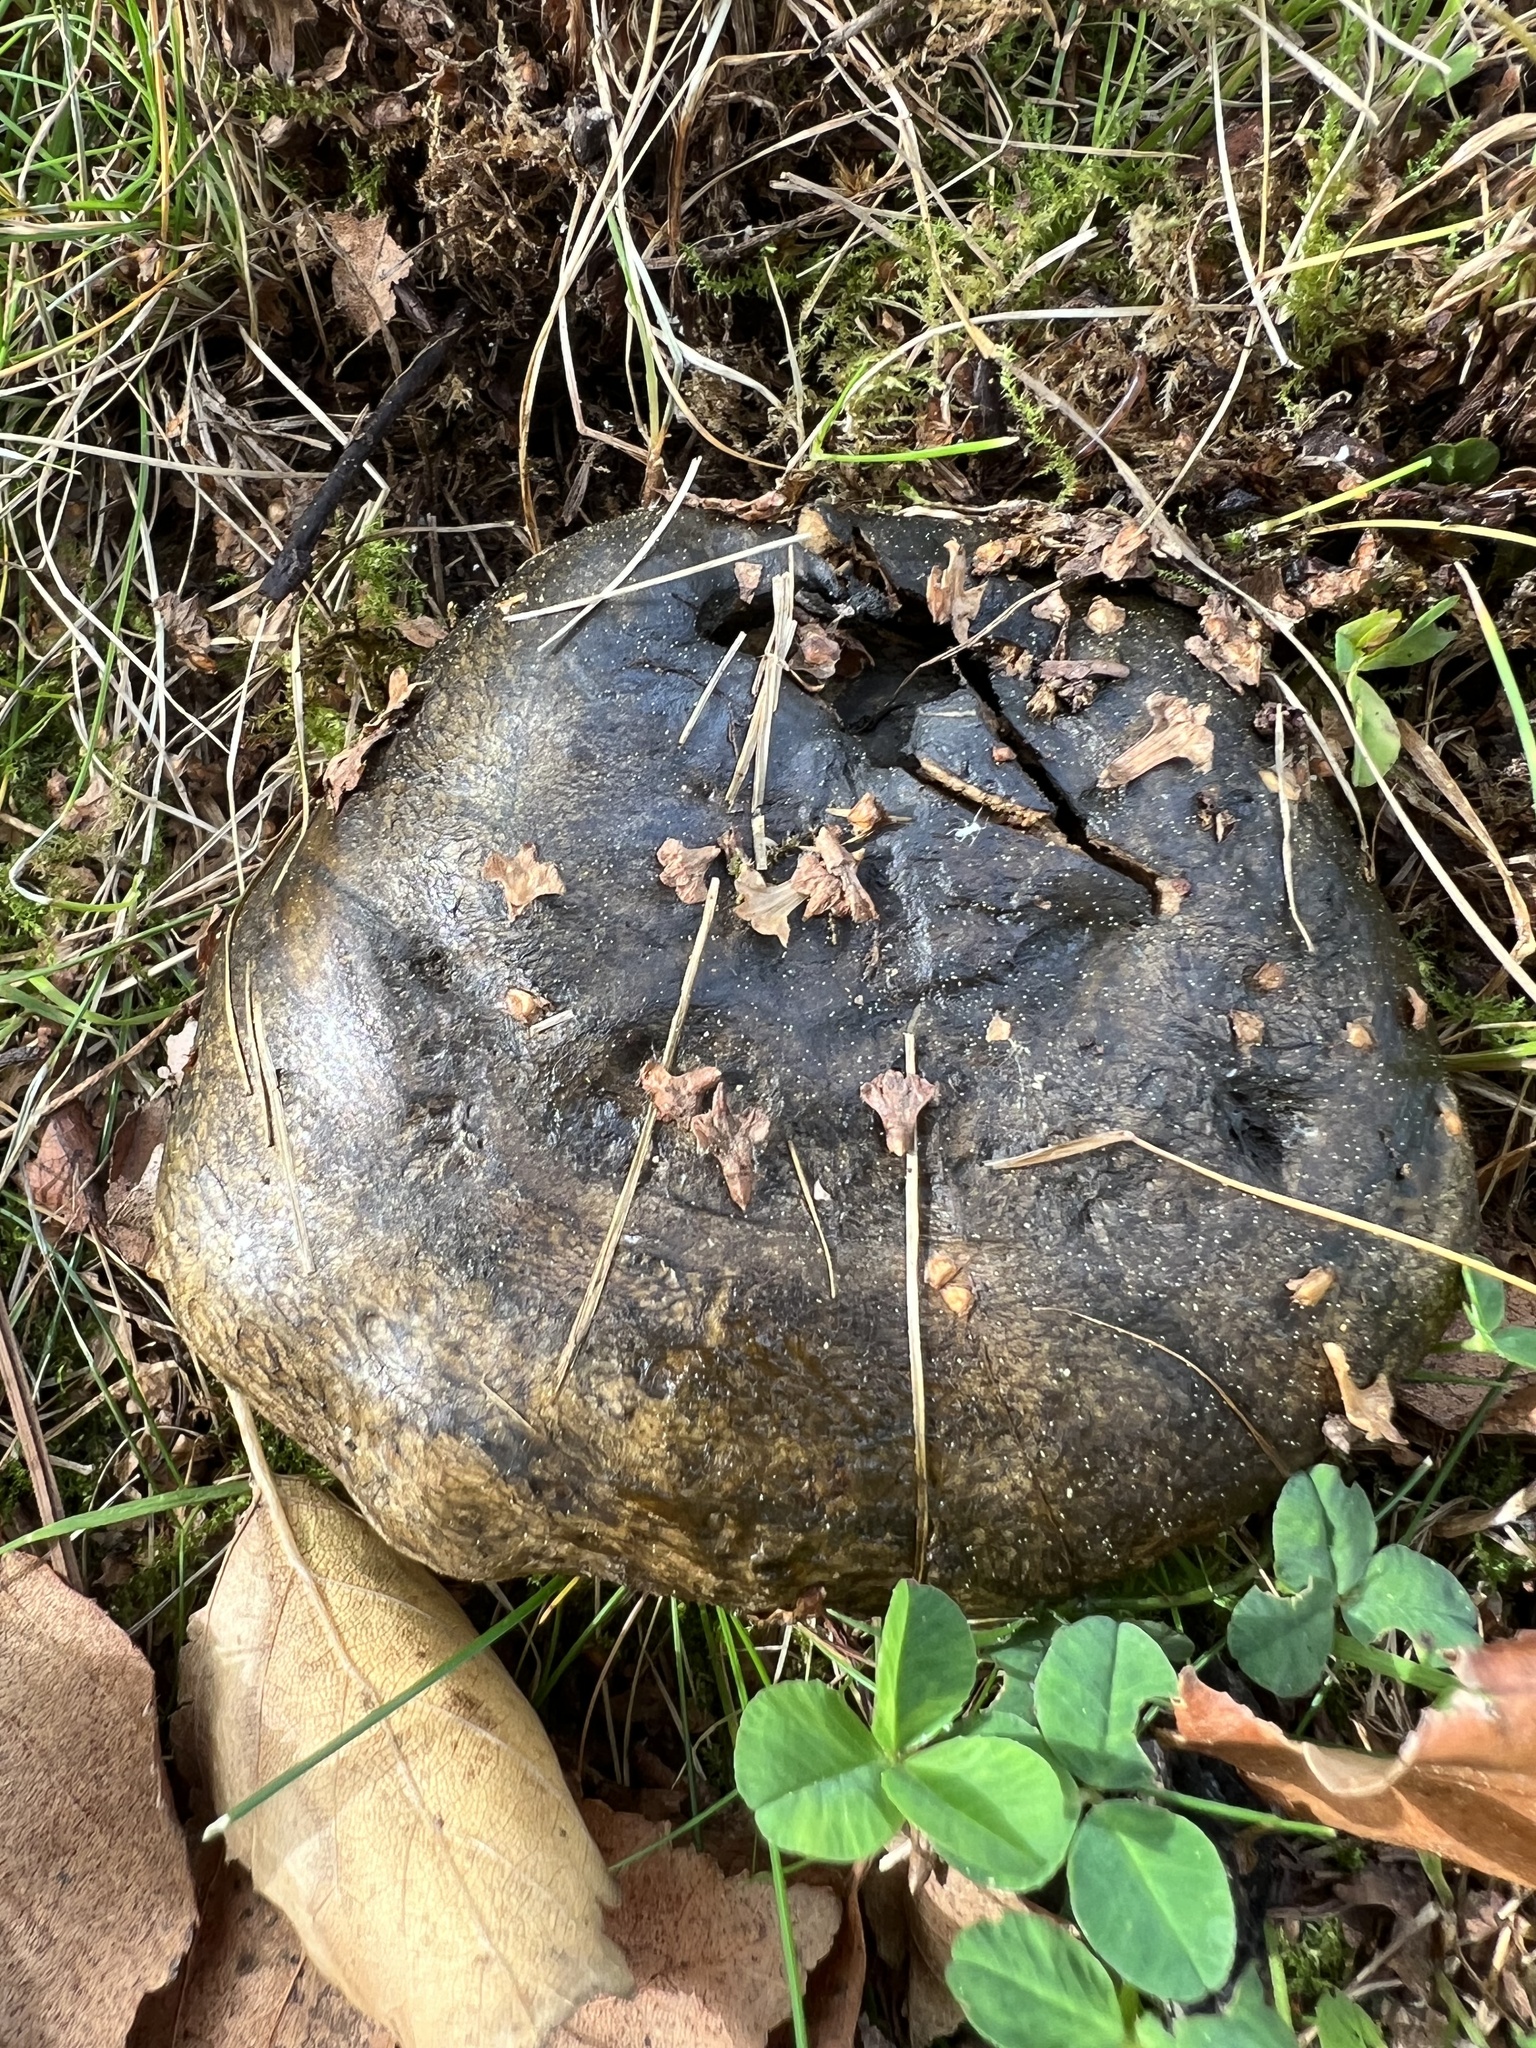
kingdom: Fungi
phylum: Basidiomycota
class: Agaricomycetes
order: Russulales
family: Russulaceae
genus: Lactarius
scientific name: Lactarius turpis
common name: Ugly milk-cap
